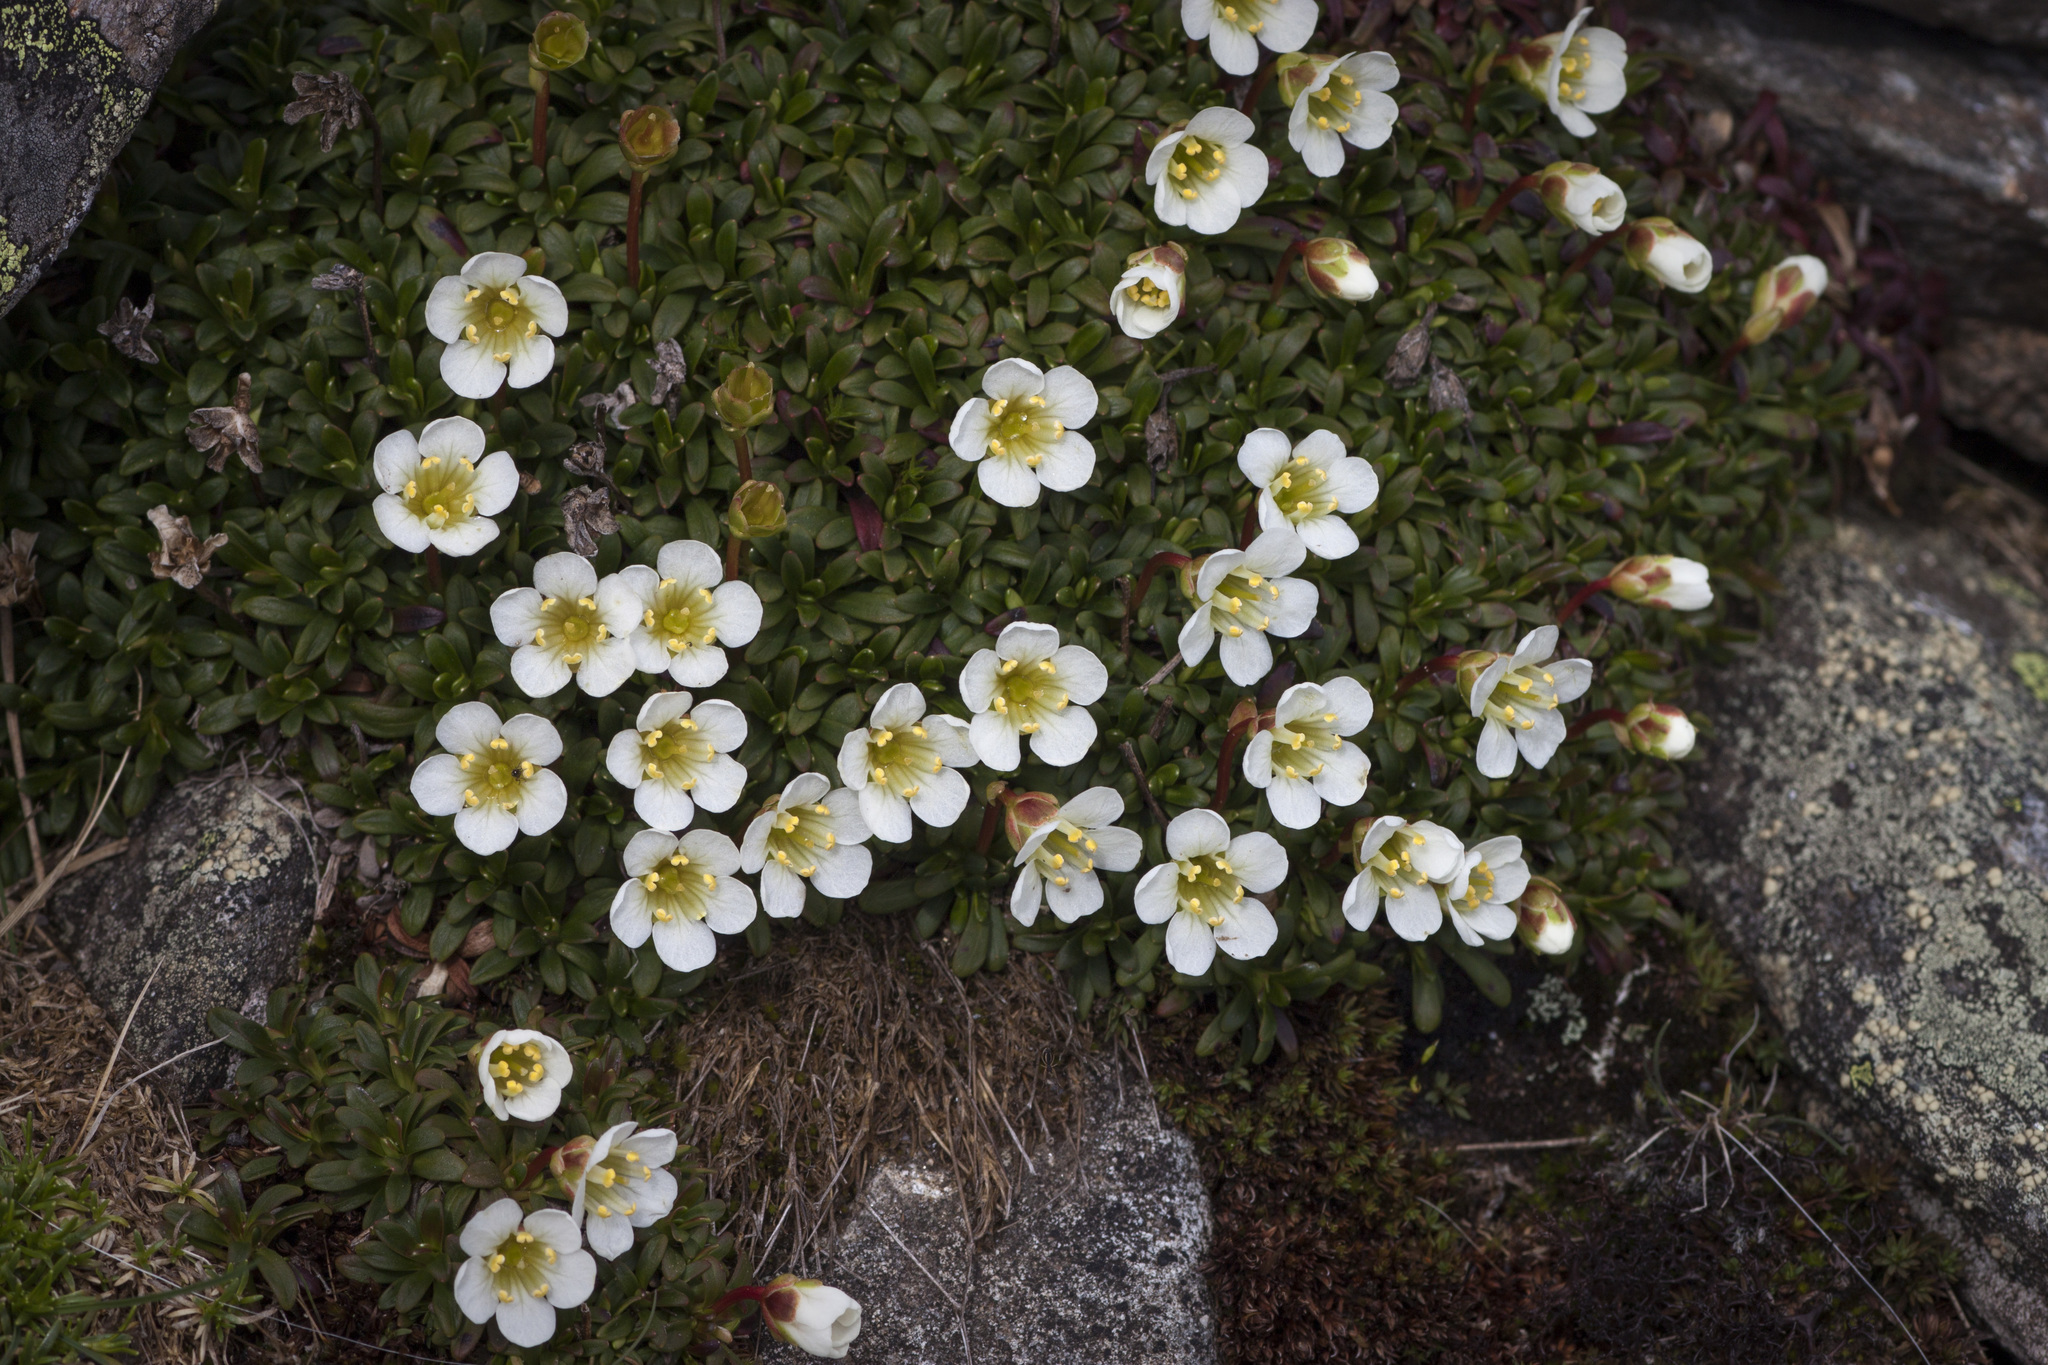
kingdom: Plantae
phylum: Tracheophyta
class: Magnoliopsida
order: Ericales
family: Diapensiaceae
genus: Diapensia
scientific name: Diapensia lapponica
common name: Diapensia
